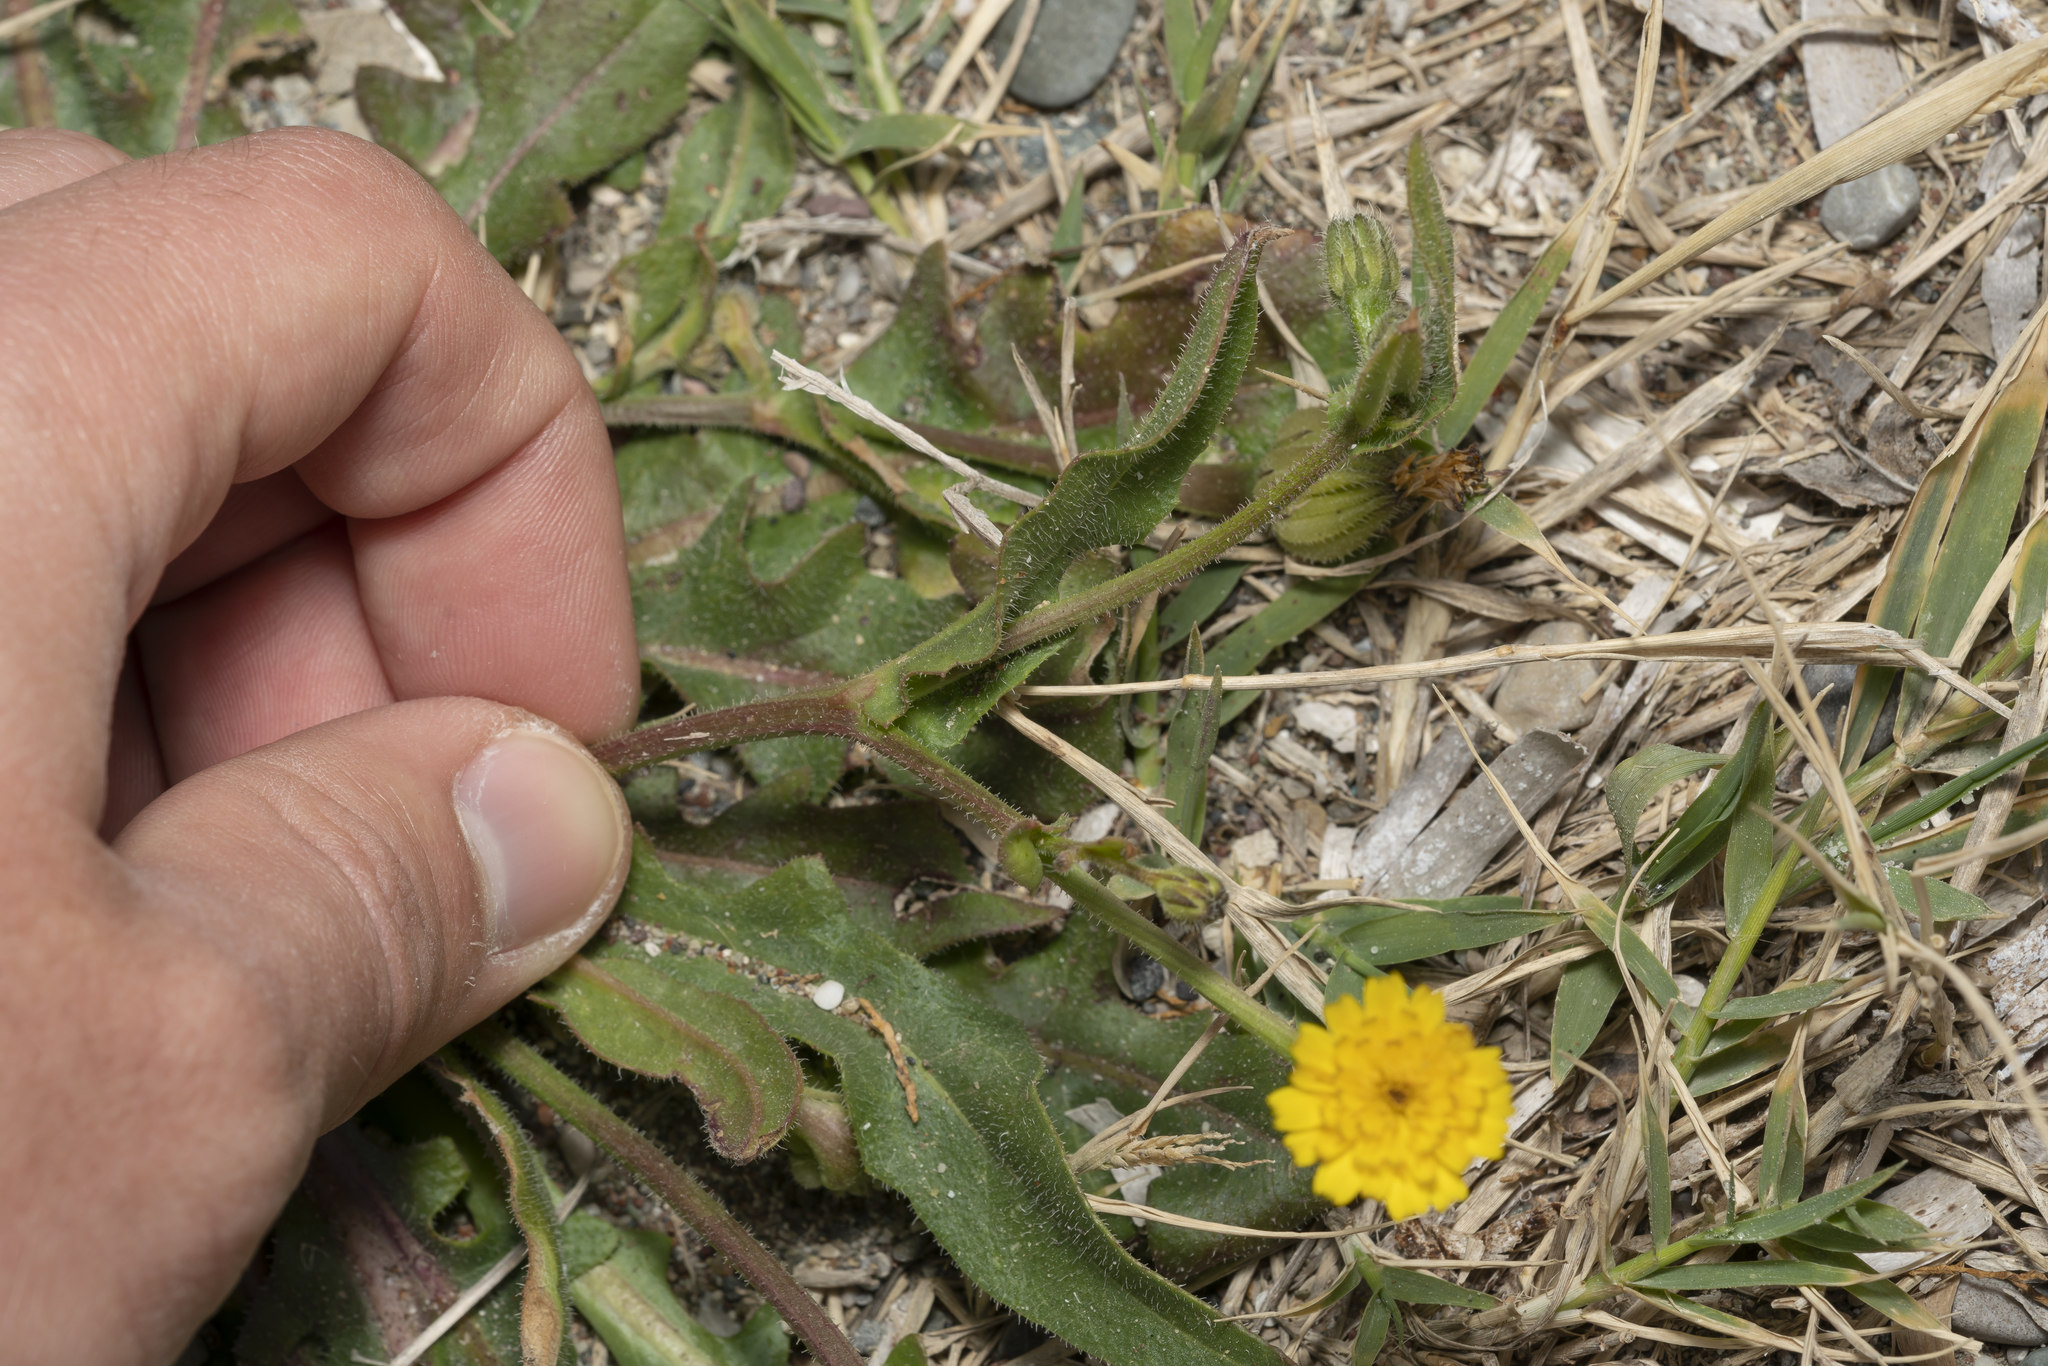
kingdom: Plantae
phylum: Tracheophyta
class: Magnoliopsida
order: Asterales
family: Asteraceae
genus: Hedypnois
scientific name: Hedypnois rhagadioloides
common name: Cretan weed
